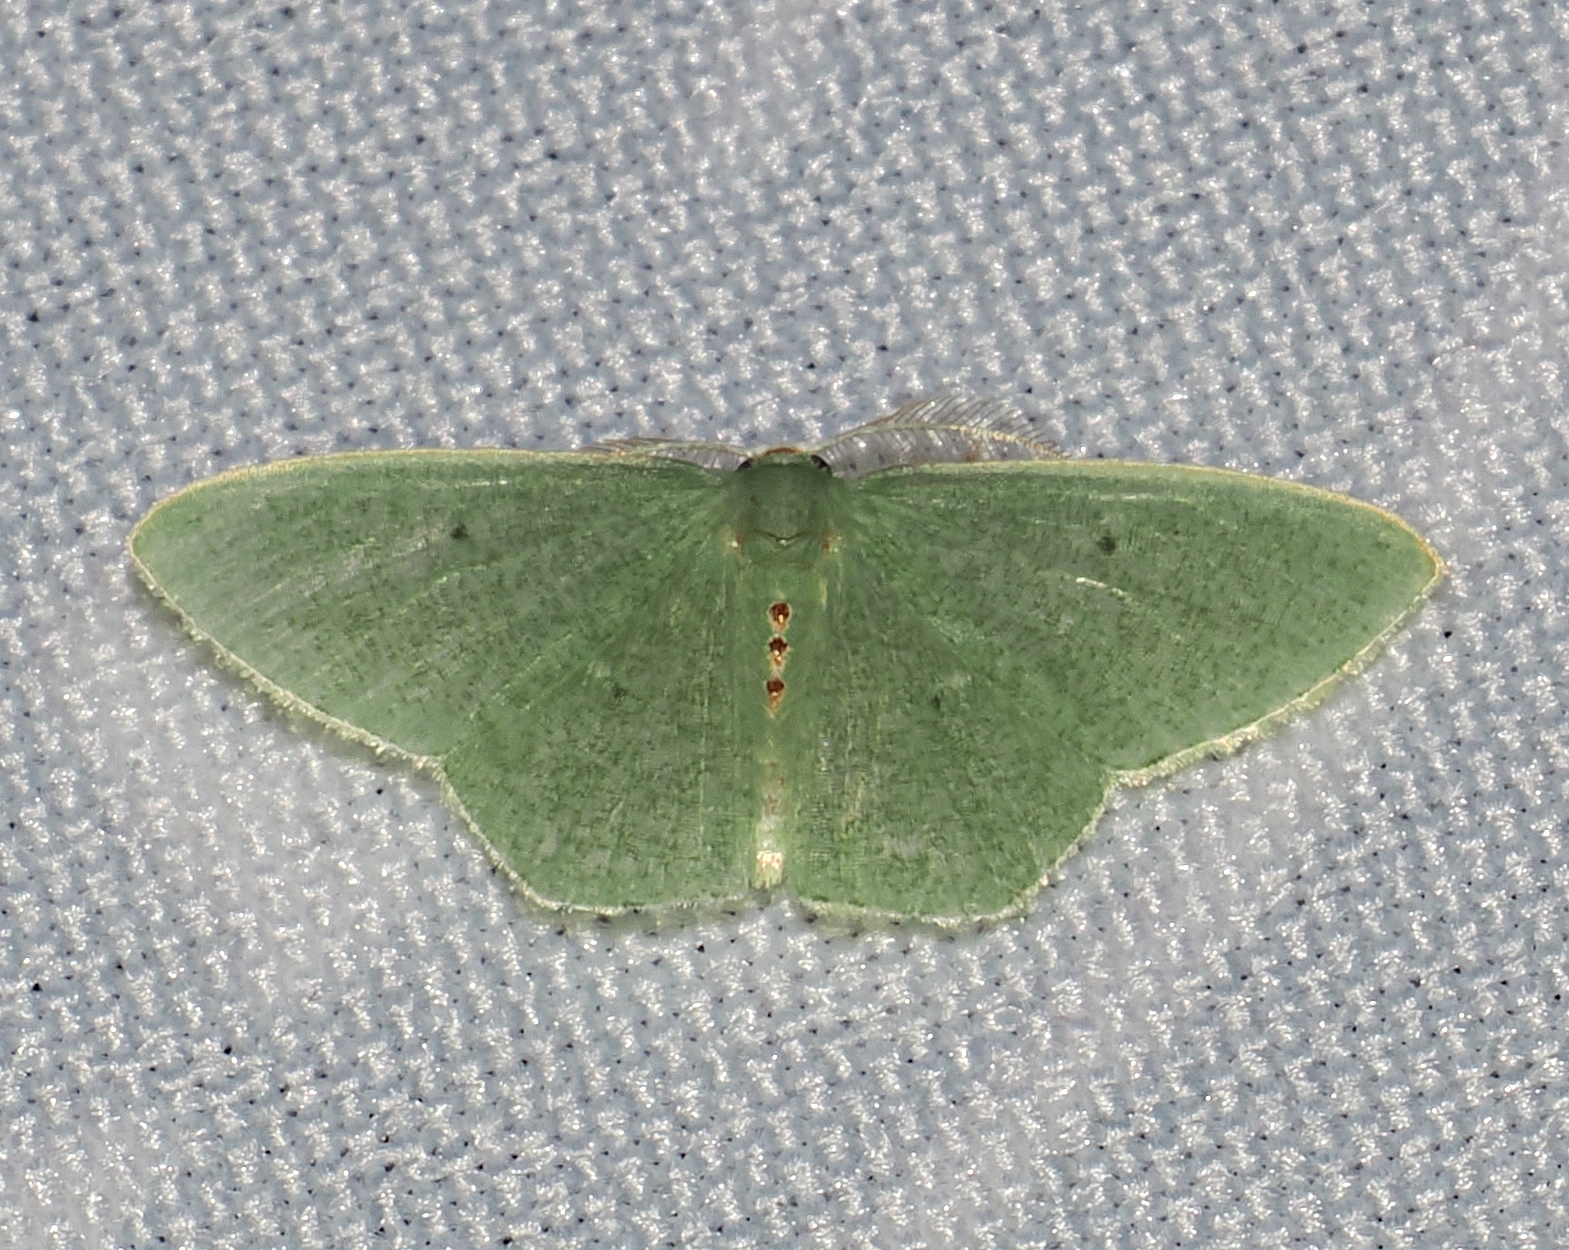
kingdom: Animalia
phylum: Arthropoda
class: Insecta
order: Lepidoptera
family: Geometridae
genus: Oospila
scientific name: Oospila confundaria
